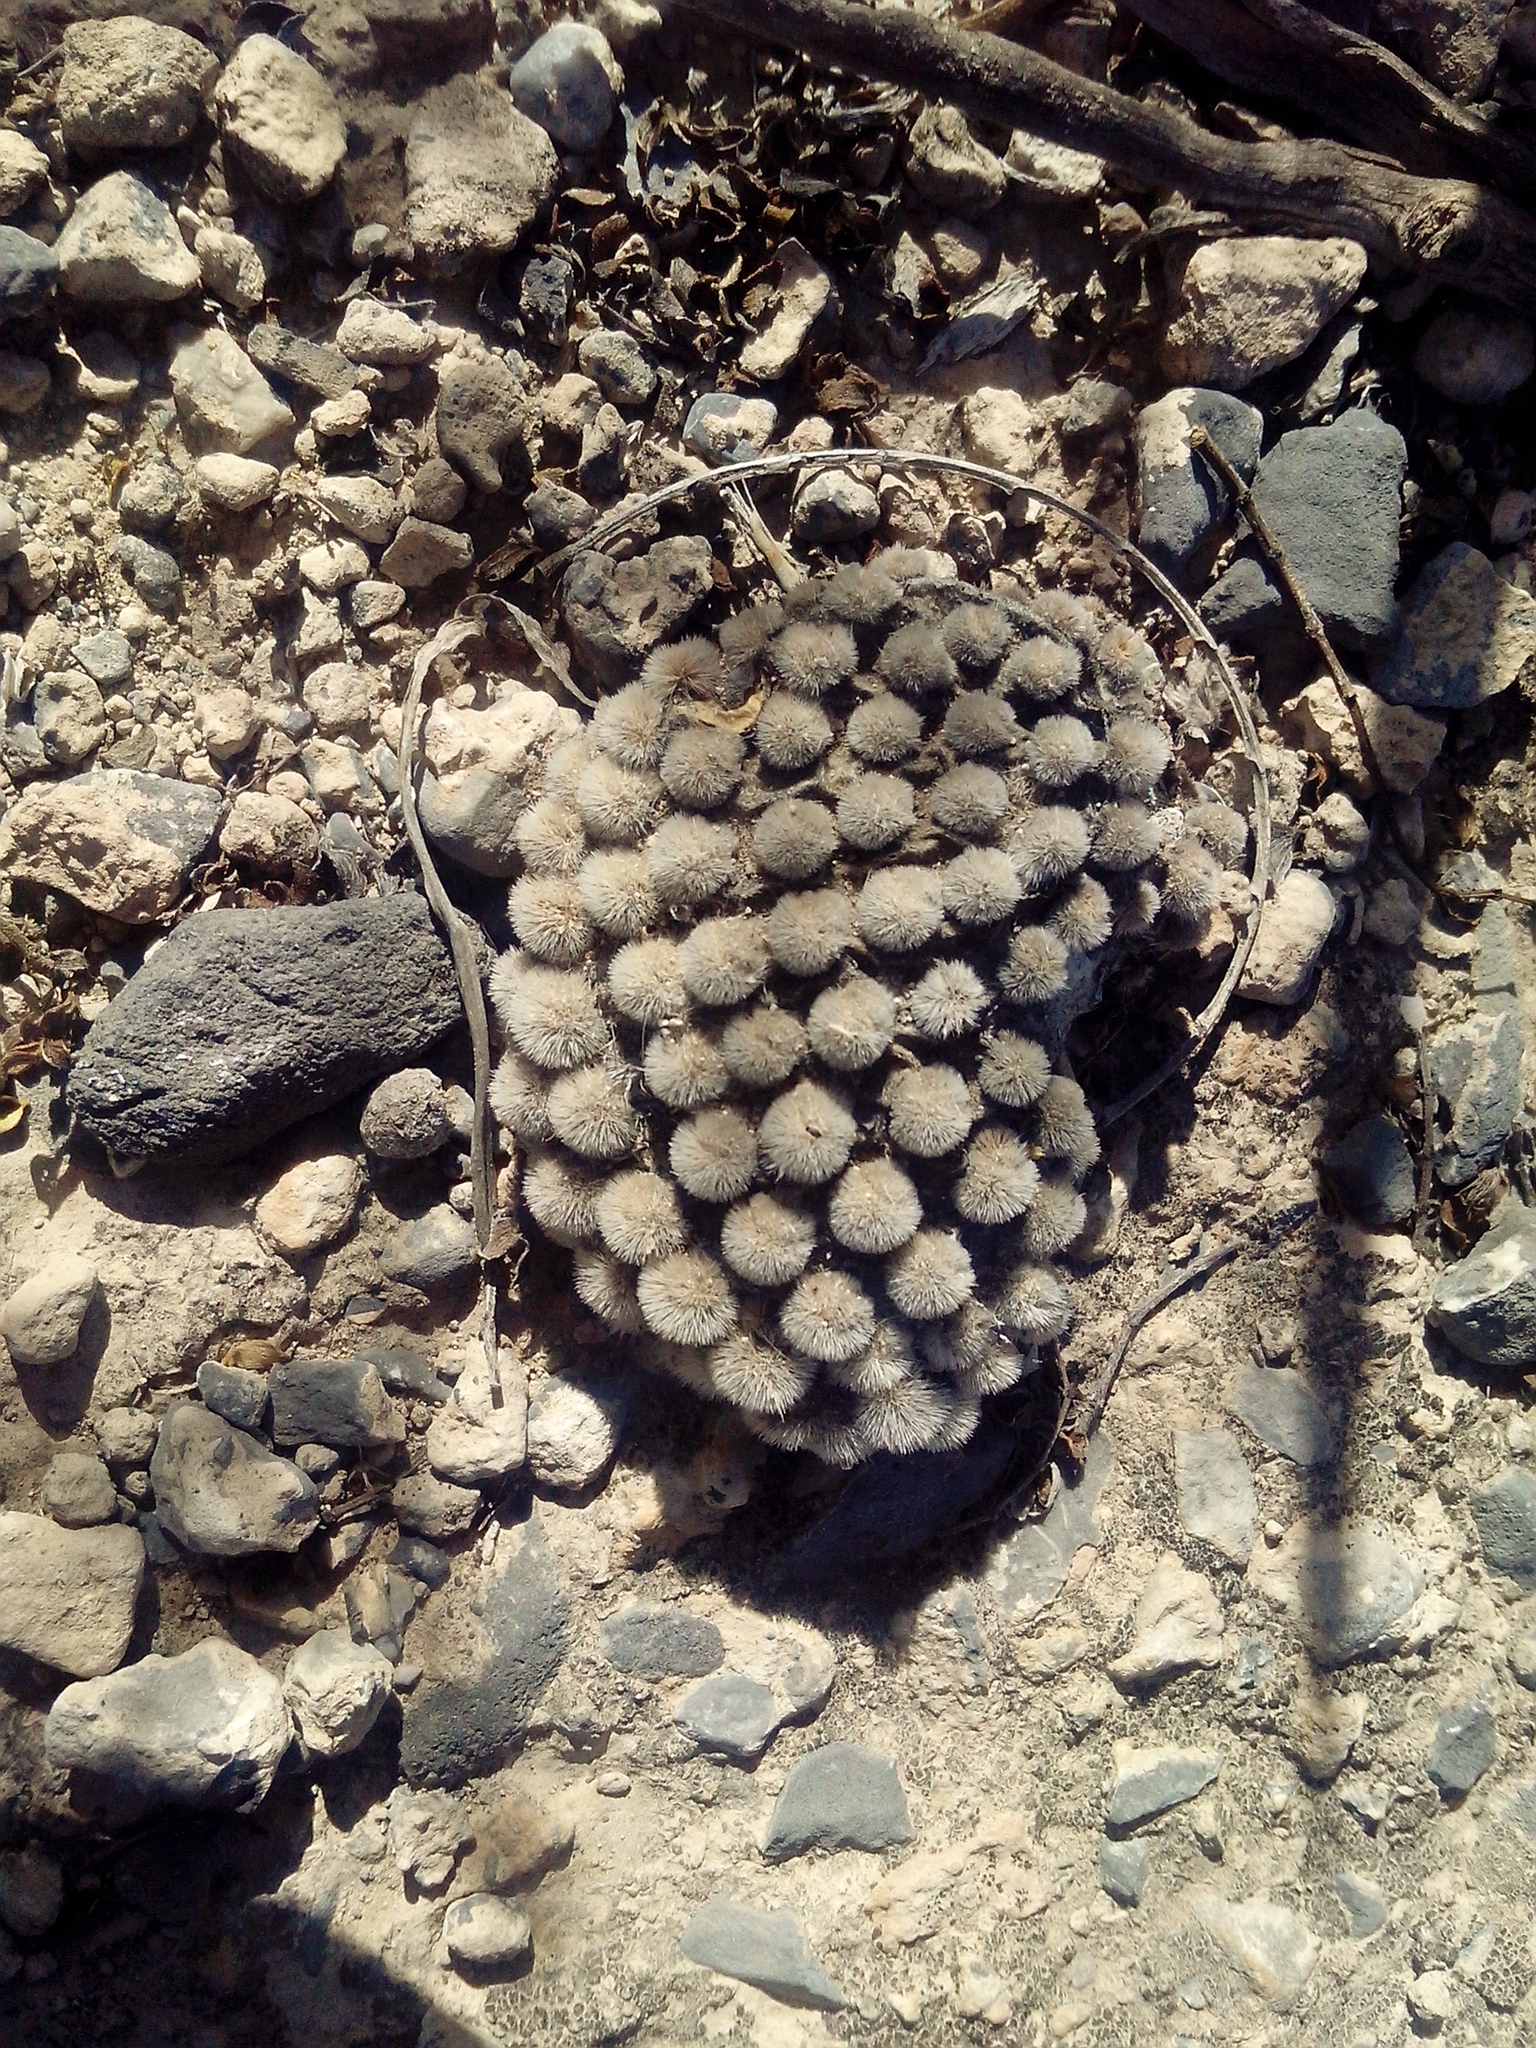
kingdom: Plantae
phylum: Tracheophyta
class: Magnoliopsida
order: Caryophyllales
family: Cactaceae
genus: Opuntia
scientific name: Opuntia microdasys
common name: Angel's-wings
